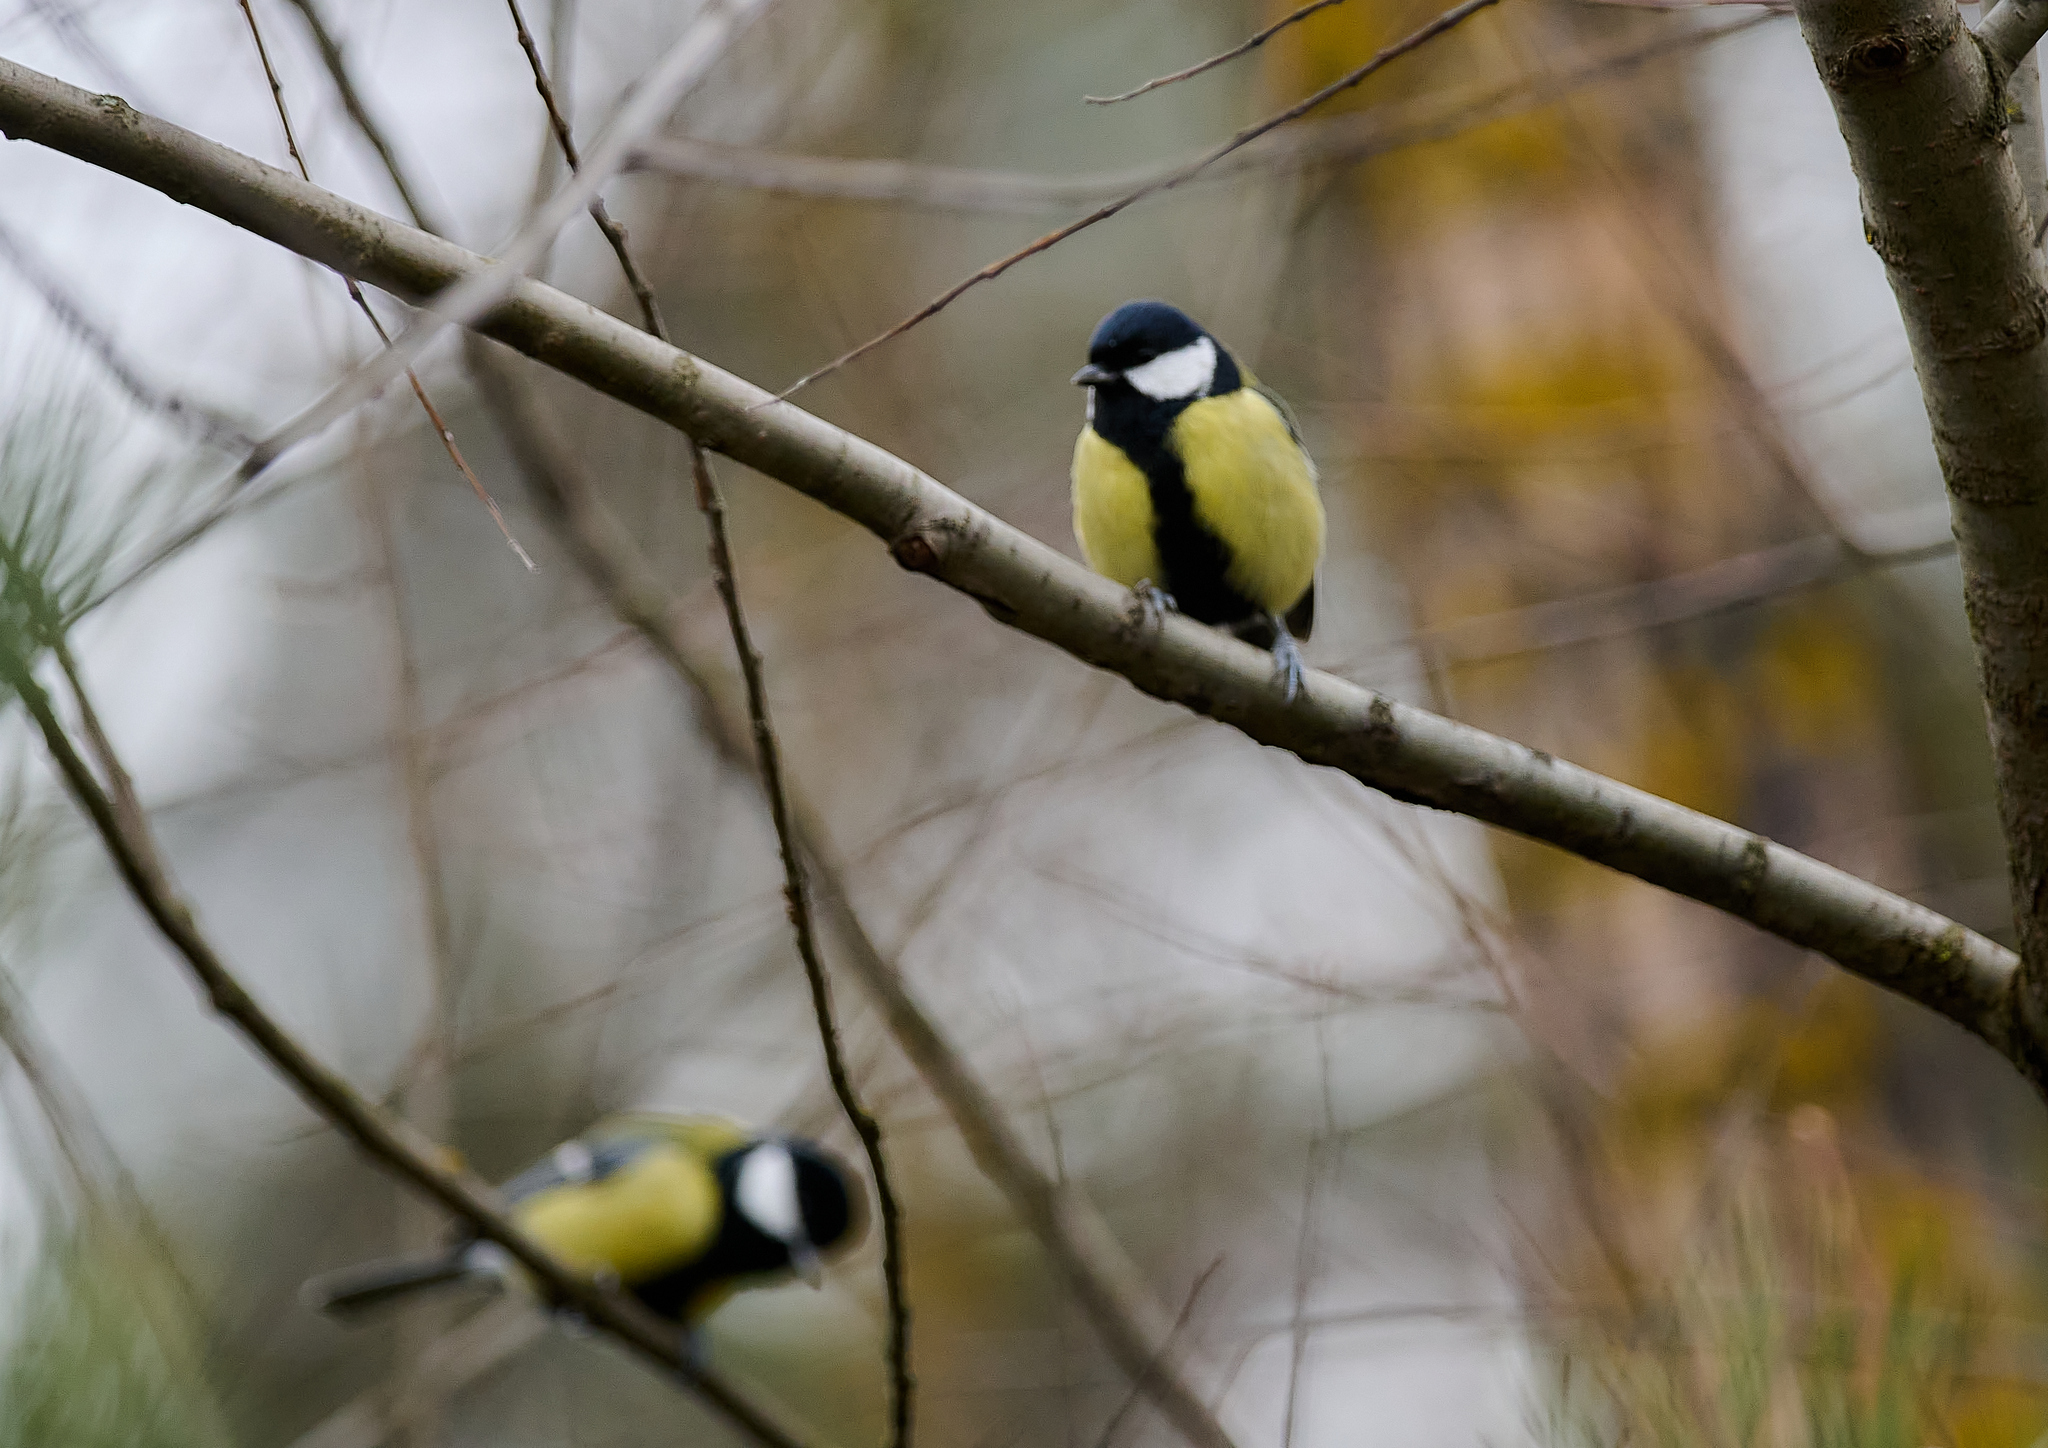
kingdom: Animalia
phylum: Chordata
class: Aves
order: Passeriformes
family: Paridae
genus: Parus
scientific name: Parus major
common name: Great tit
